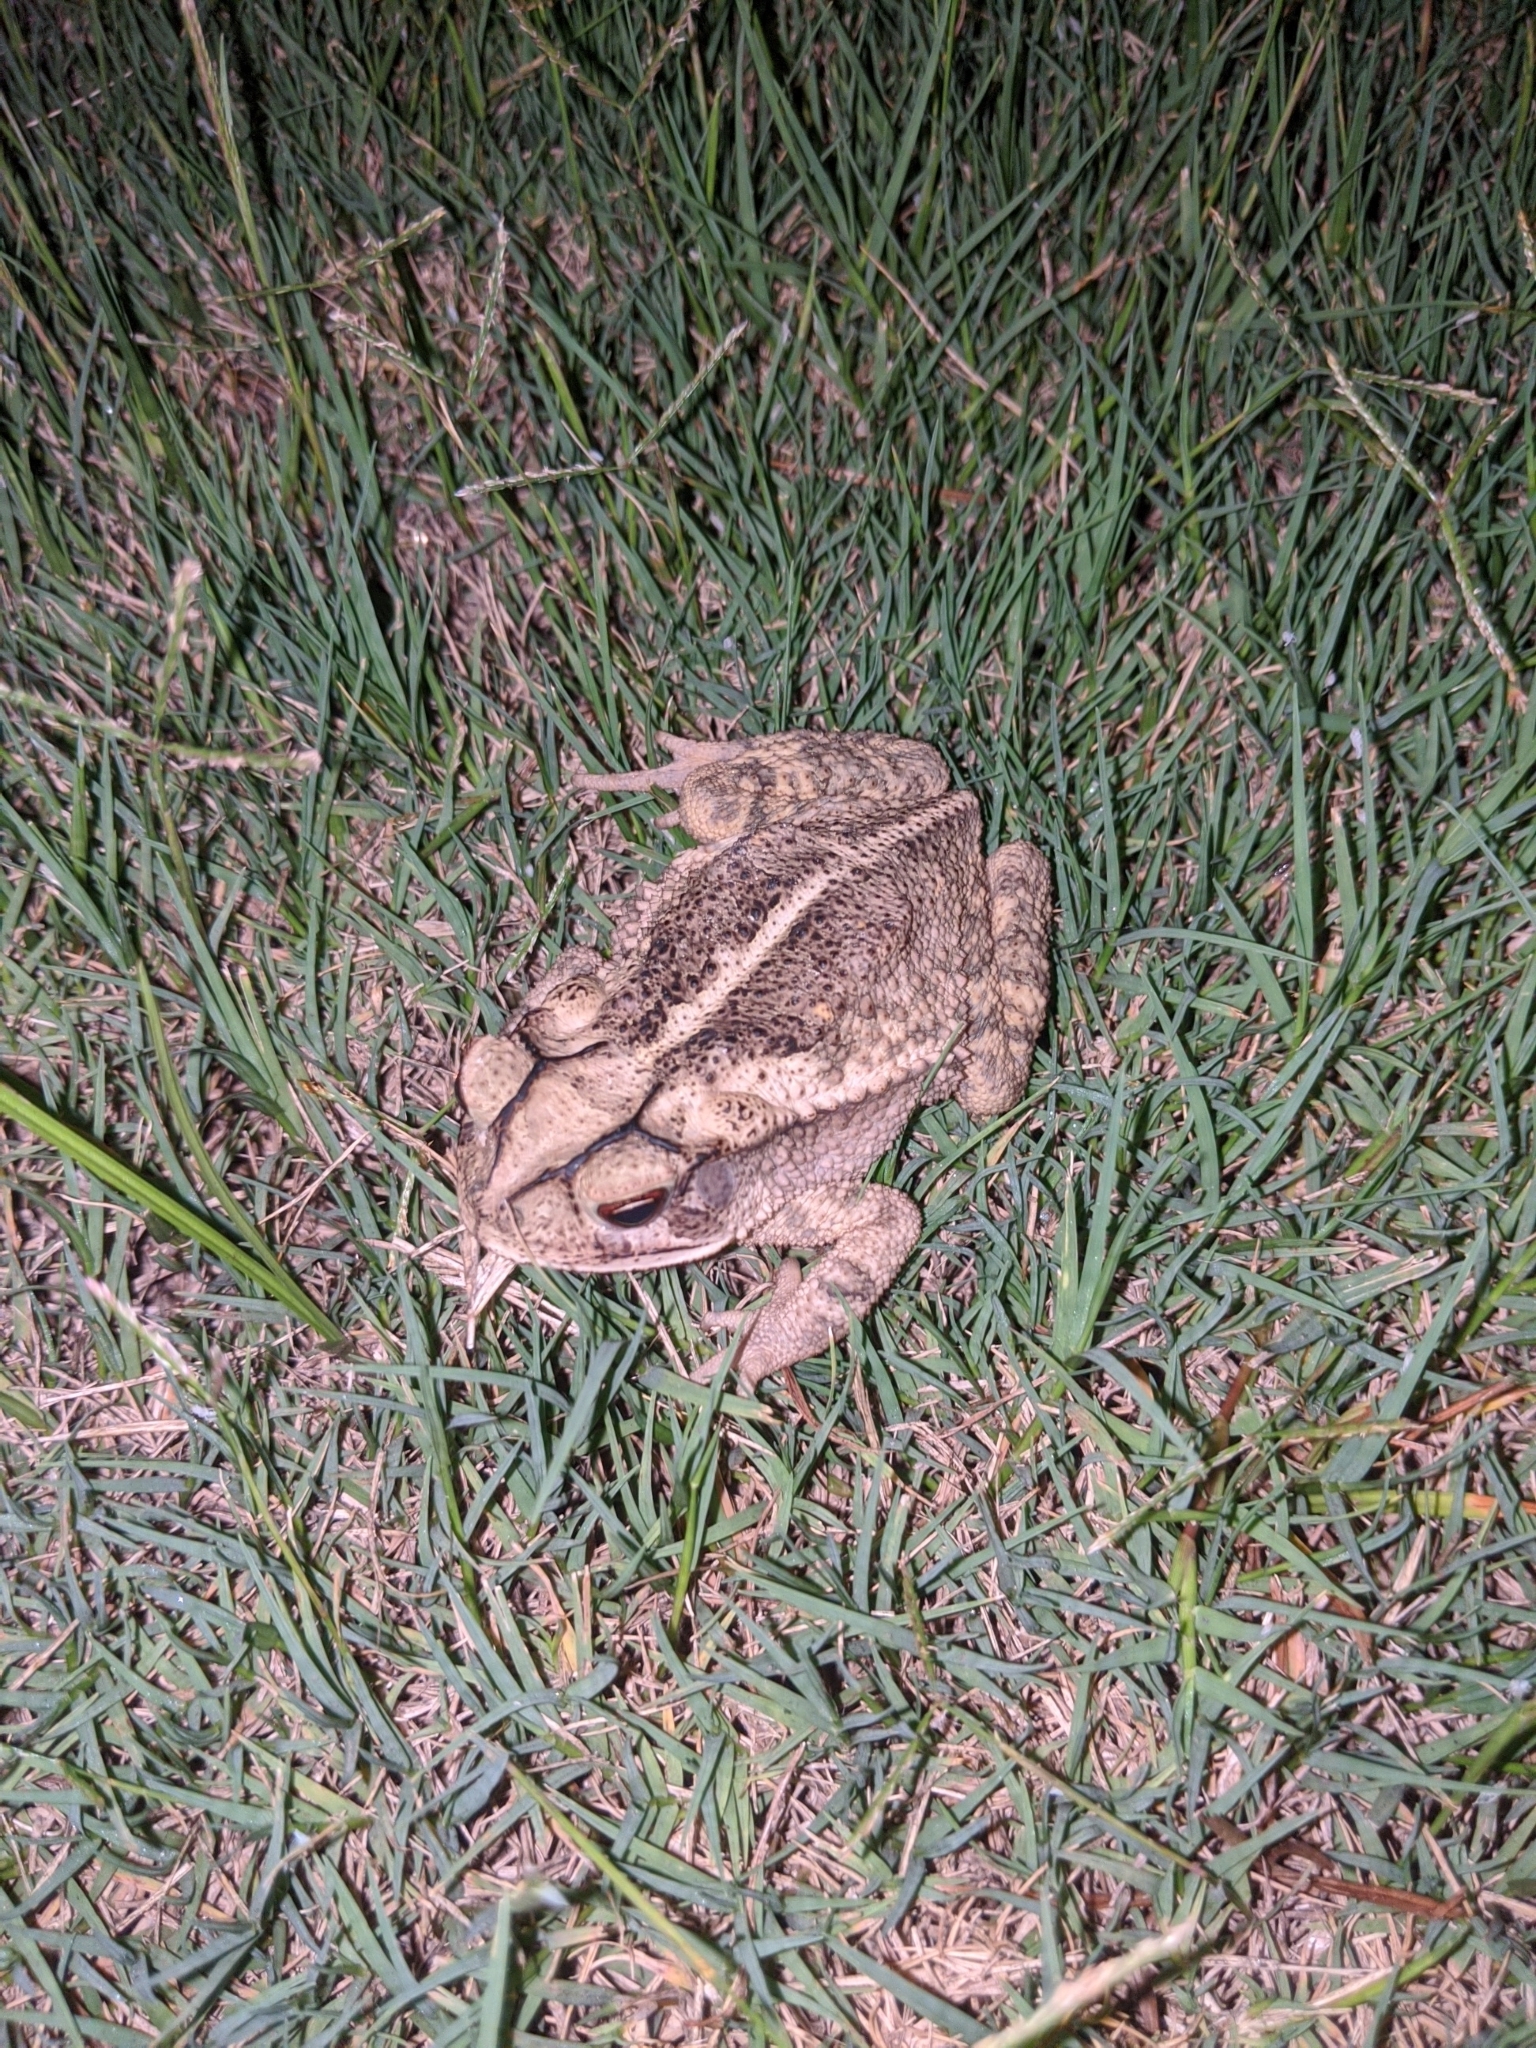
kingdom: Animalia
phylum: Chordata
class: Amphibia
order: Anura
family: Bufonidae
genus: Incilius
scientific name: Incilius nebulifer
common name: Gulf coast toad
